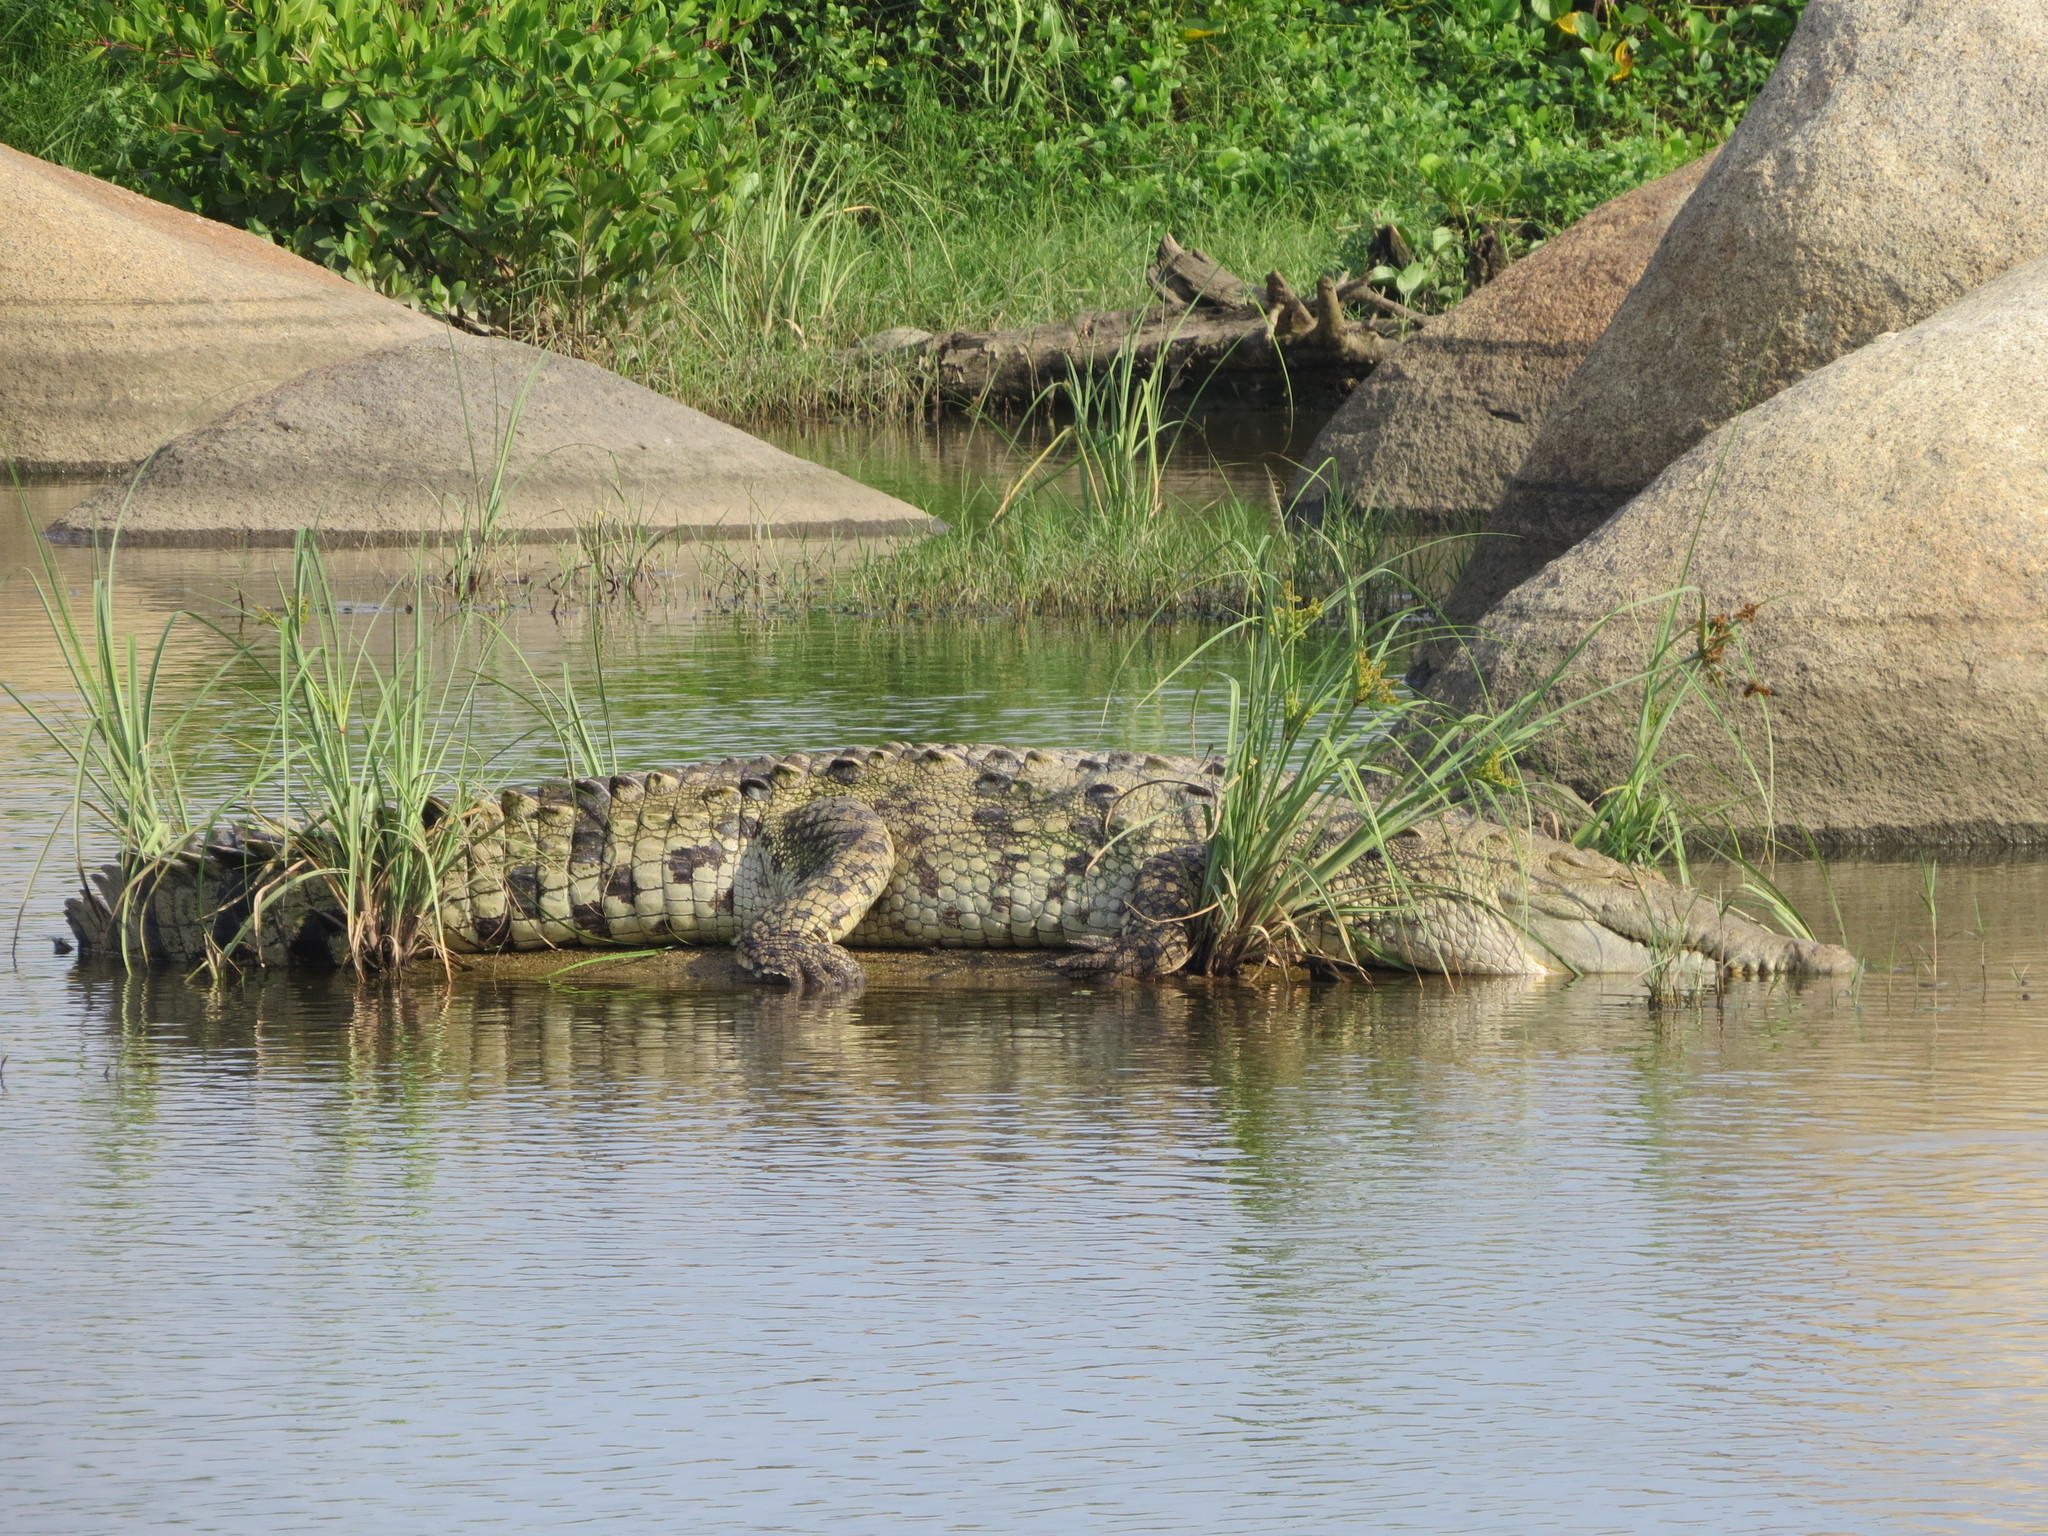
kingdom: Animalia
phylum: Chordata
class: Crocodylia
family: Crocodylidae
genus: Crocodylus
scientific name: Crocodylus acutus
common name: American crocodile
